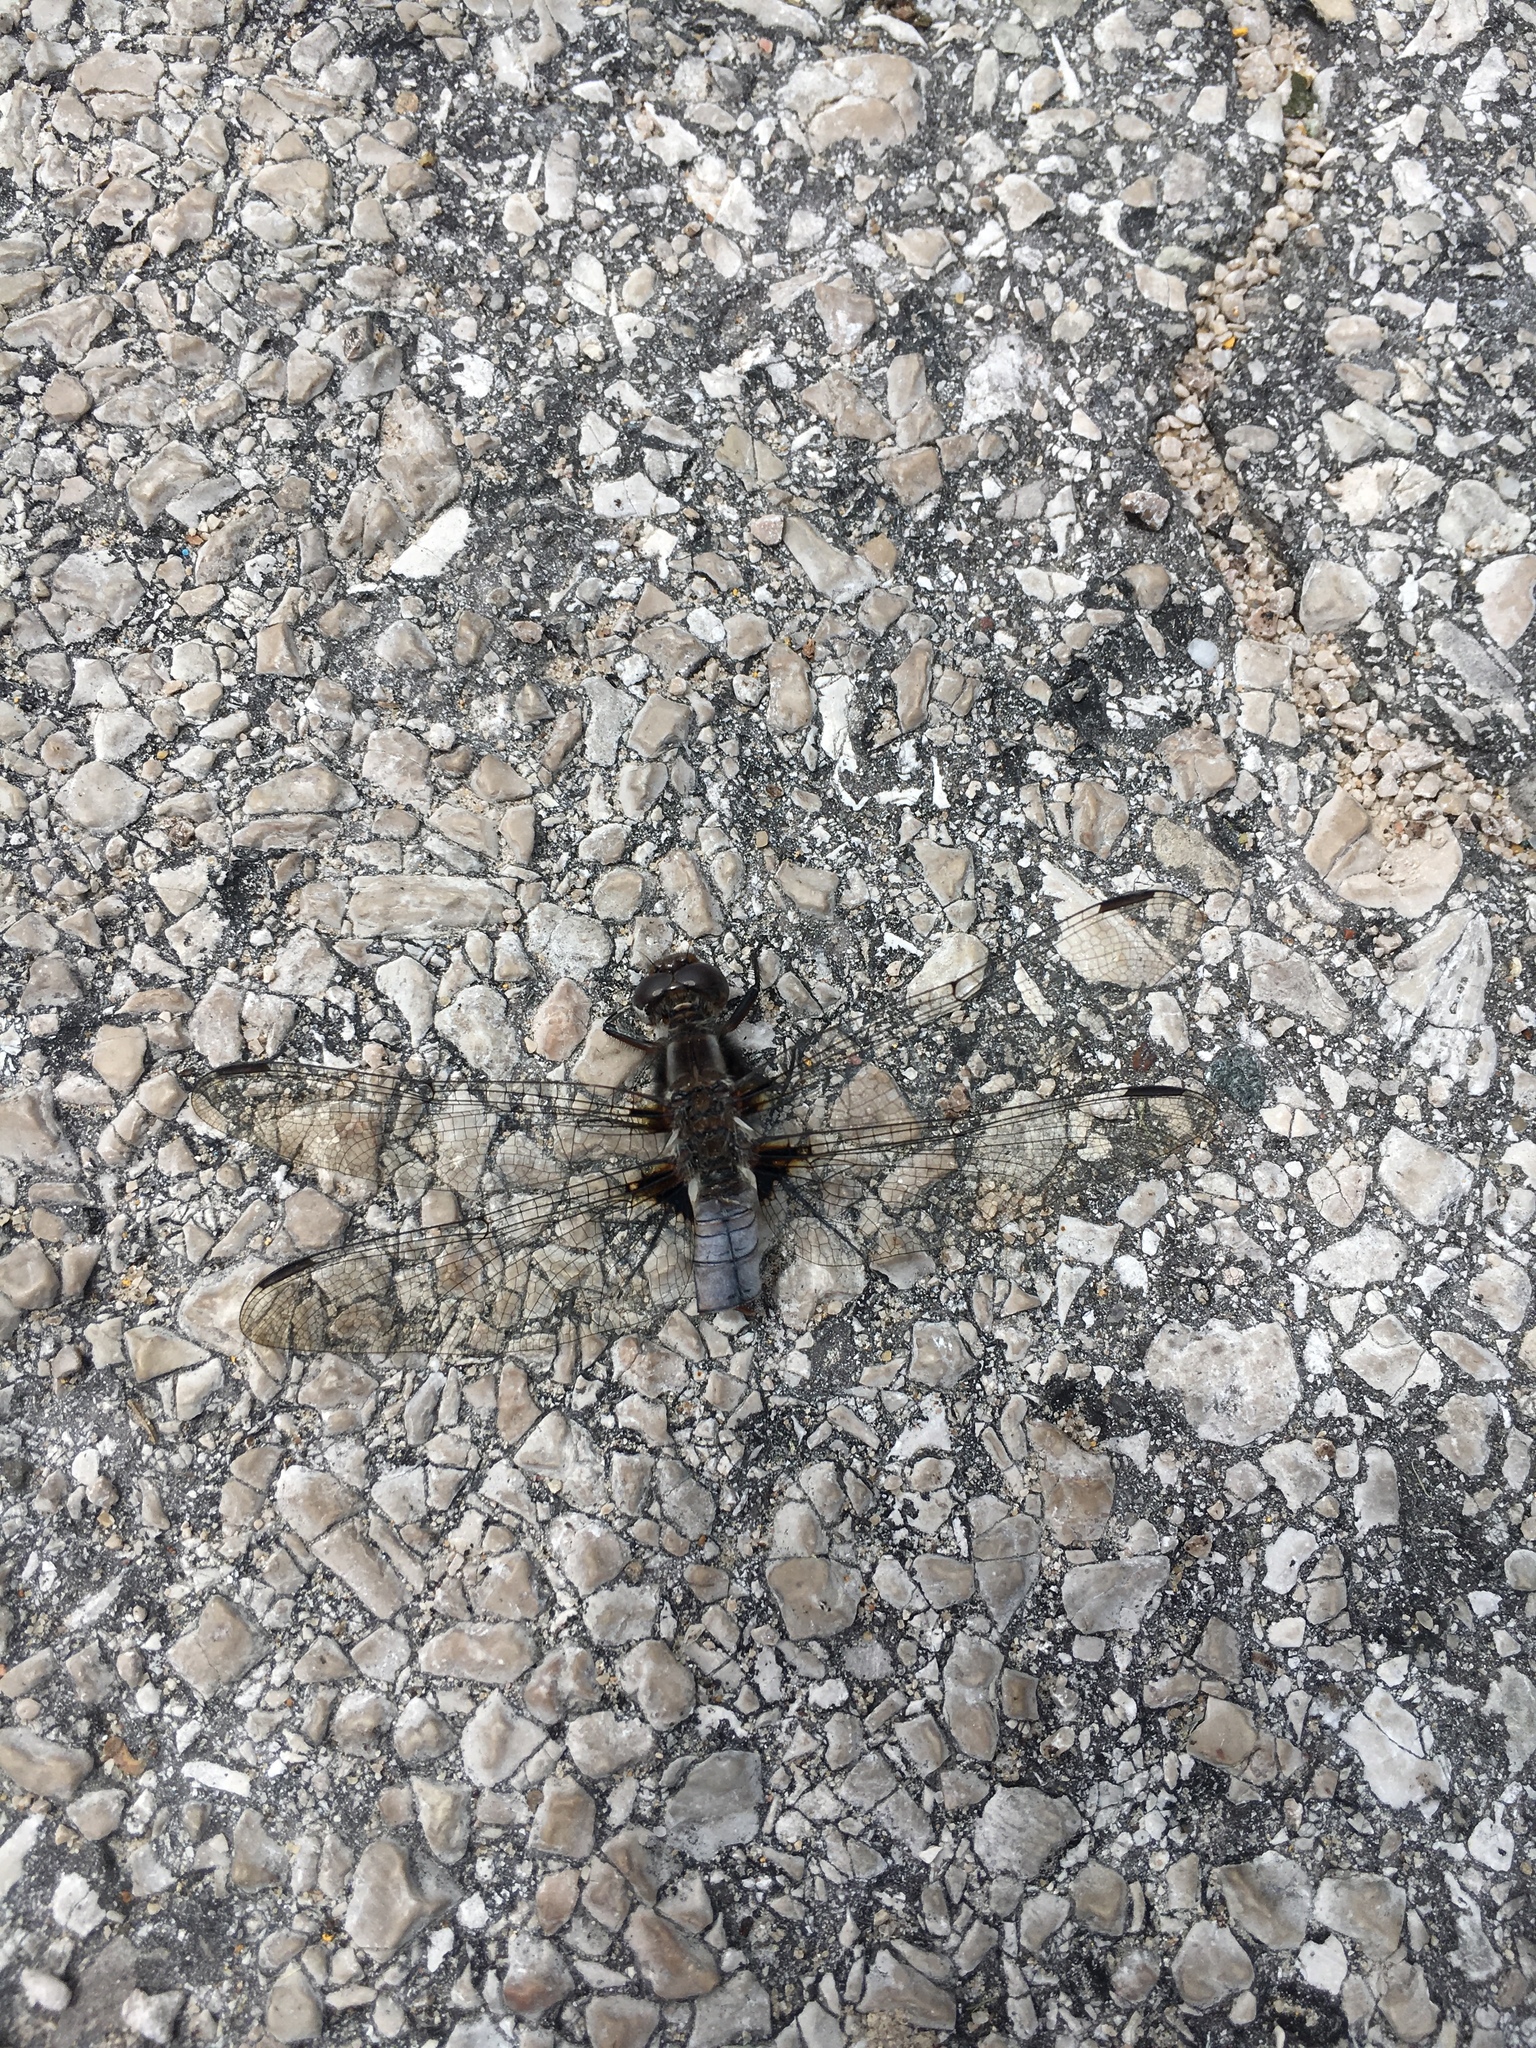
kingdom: Animalia
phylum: Arthropoda
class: Insecta
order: Odonata
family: Libellulidae
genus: Ladona
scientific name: Ladona julia
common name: Chalk-fronted corporal
